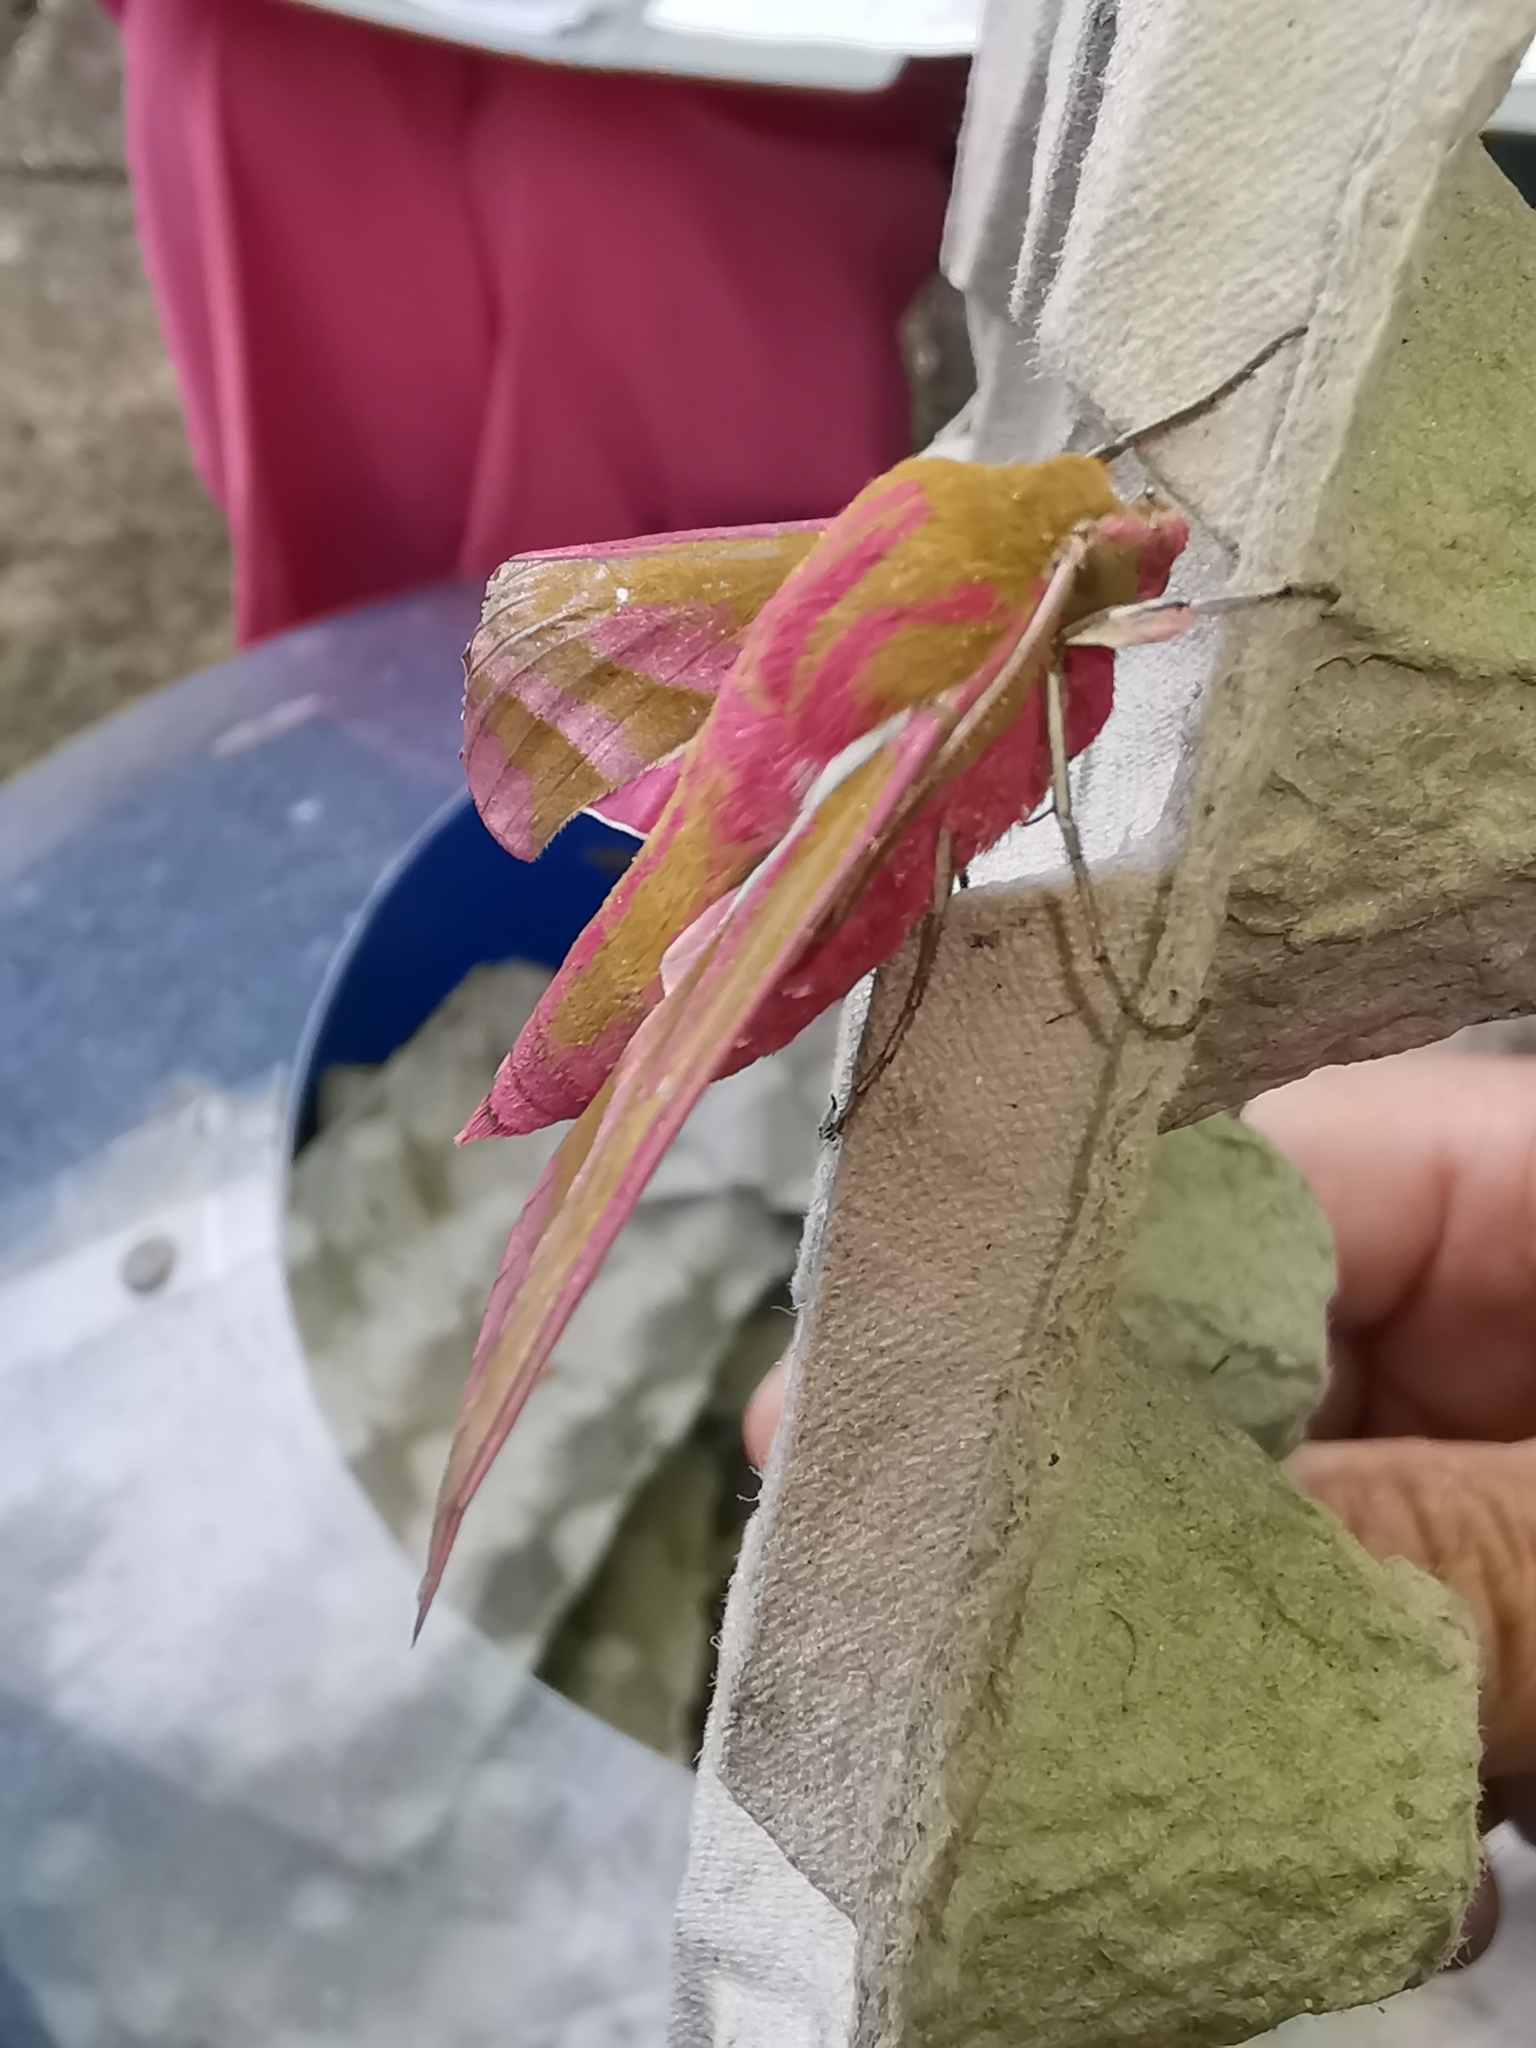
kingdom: Animalia
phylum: Arthropoda
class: Insecta
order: Lepidoptera
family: Sphingidae
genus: Deilephila
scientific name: Deilephila elpenor
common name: Elephant hawk-moth
